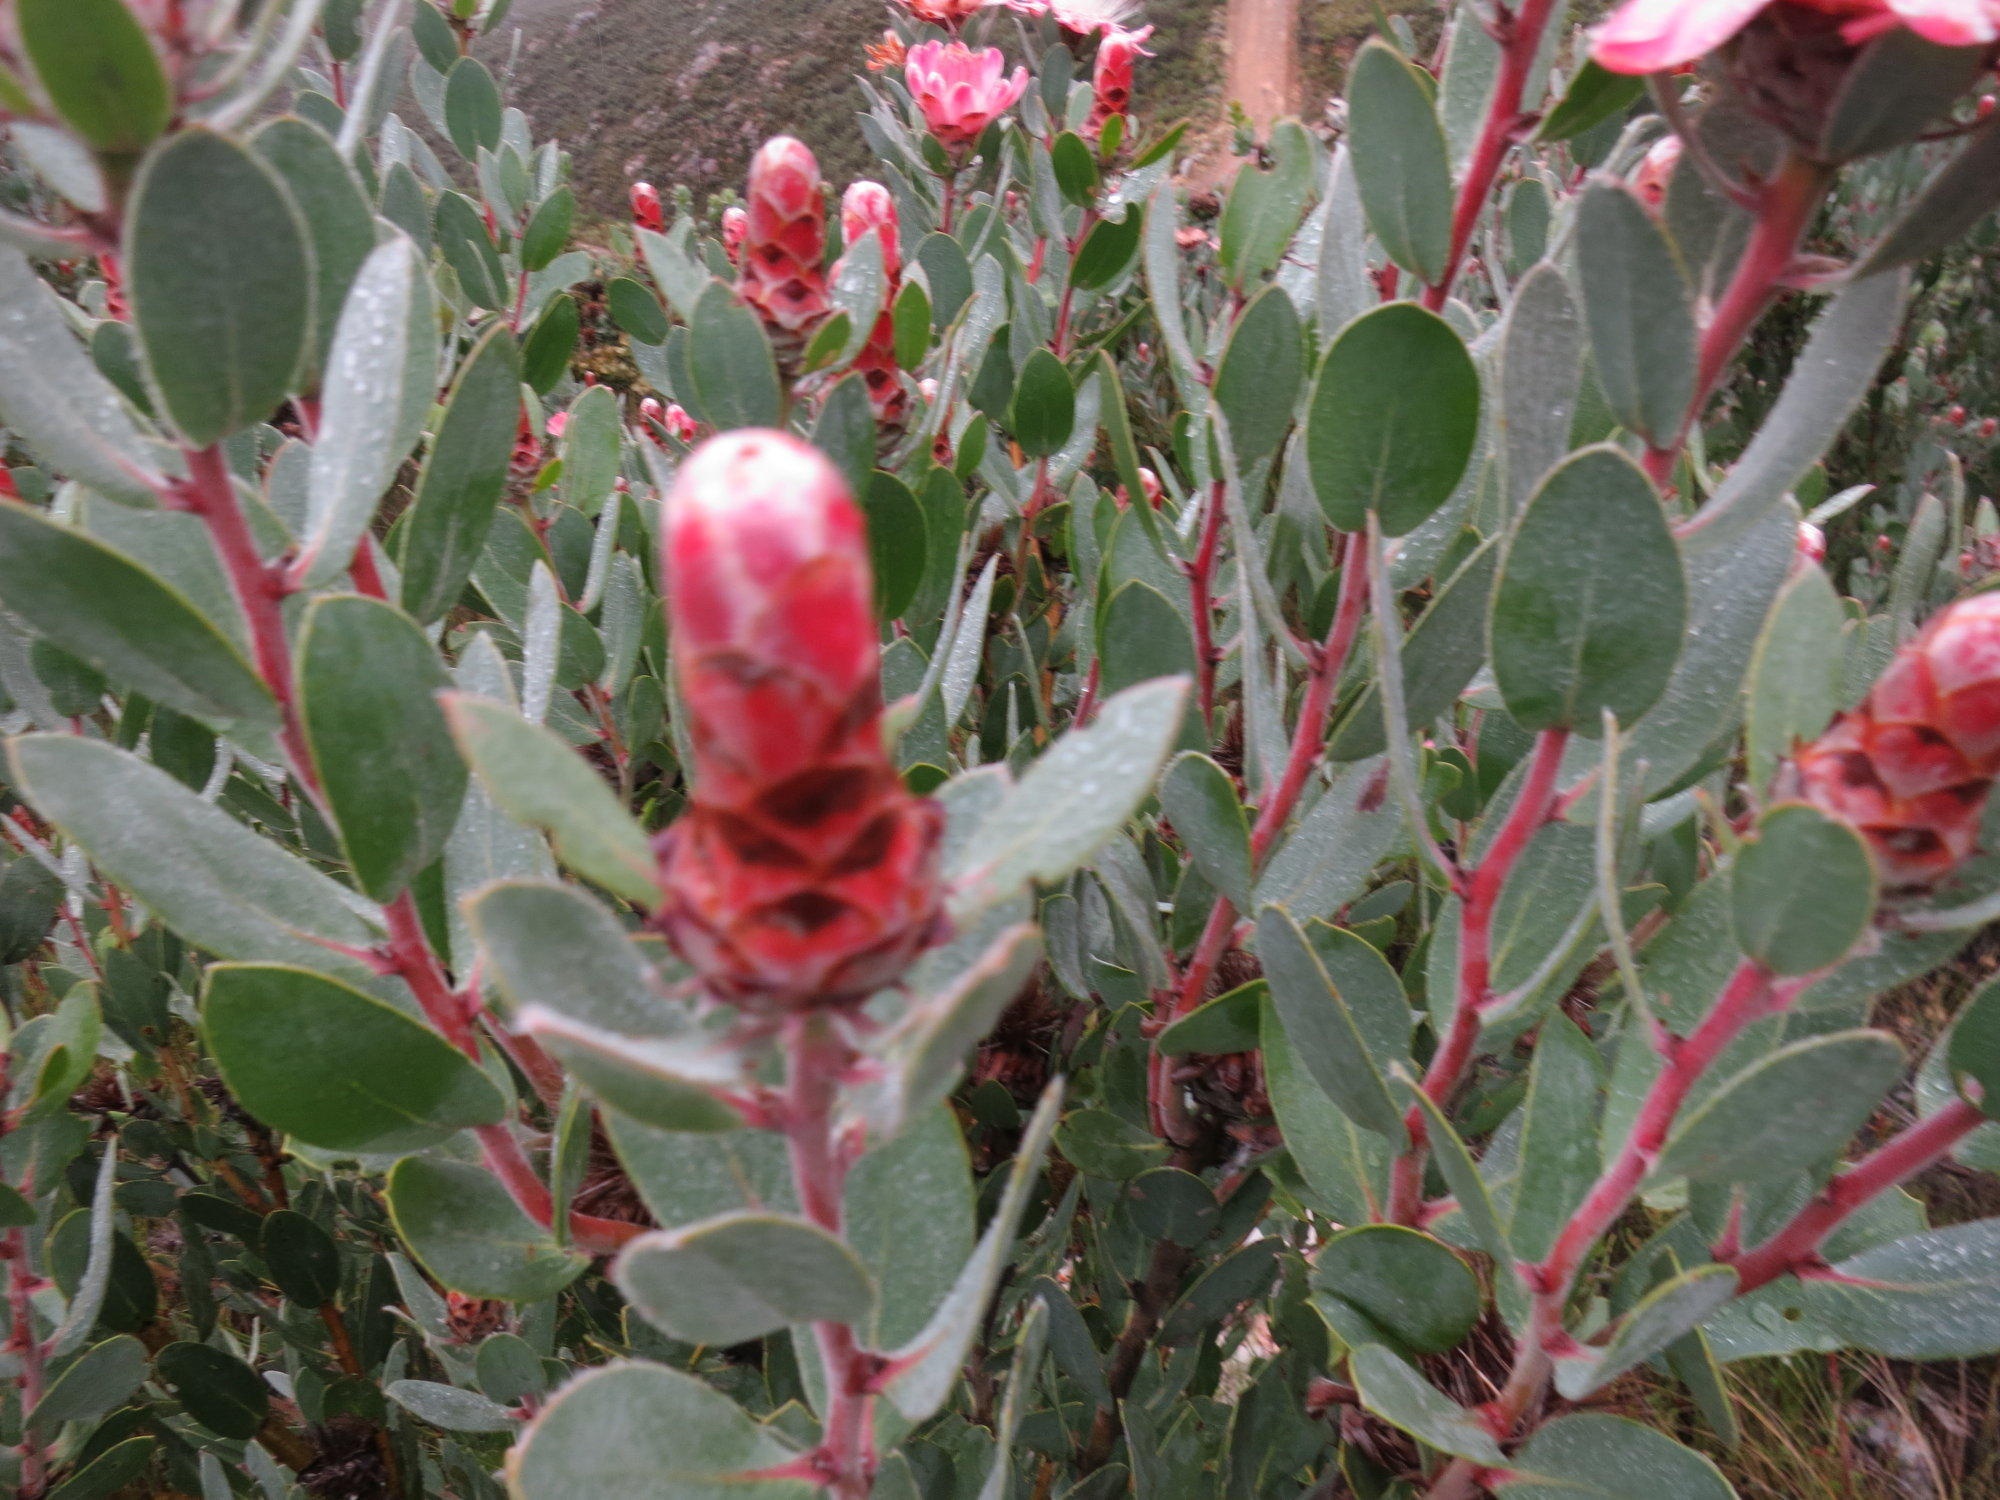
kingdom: Plantae
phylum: Tracheophyta
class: Magnoliopsida
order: Proteales
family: Proteaceae
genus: Protea
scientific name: Protea punctata
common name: Water sugarbush
